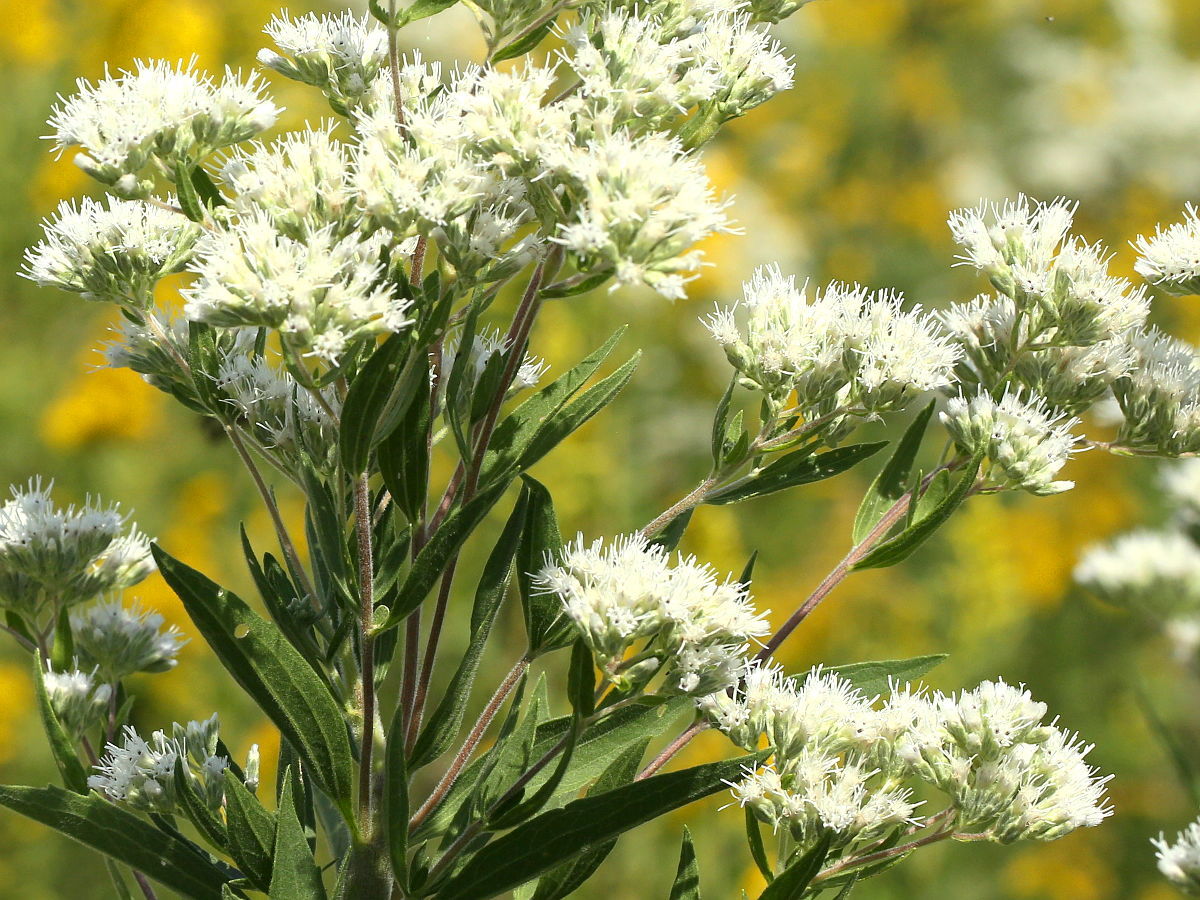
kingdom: Plantae
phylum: Tracheophyta
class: Magnoliopsida
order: Asterales
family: Asteraceae
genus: Eupatorium
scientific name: Eupatorium altissimum
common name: Tall thoroughwort
